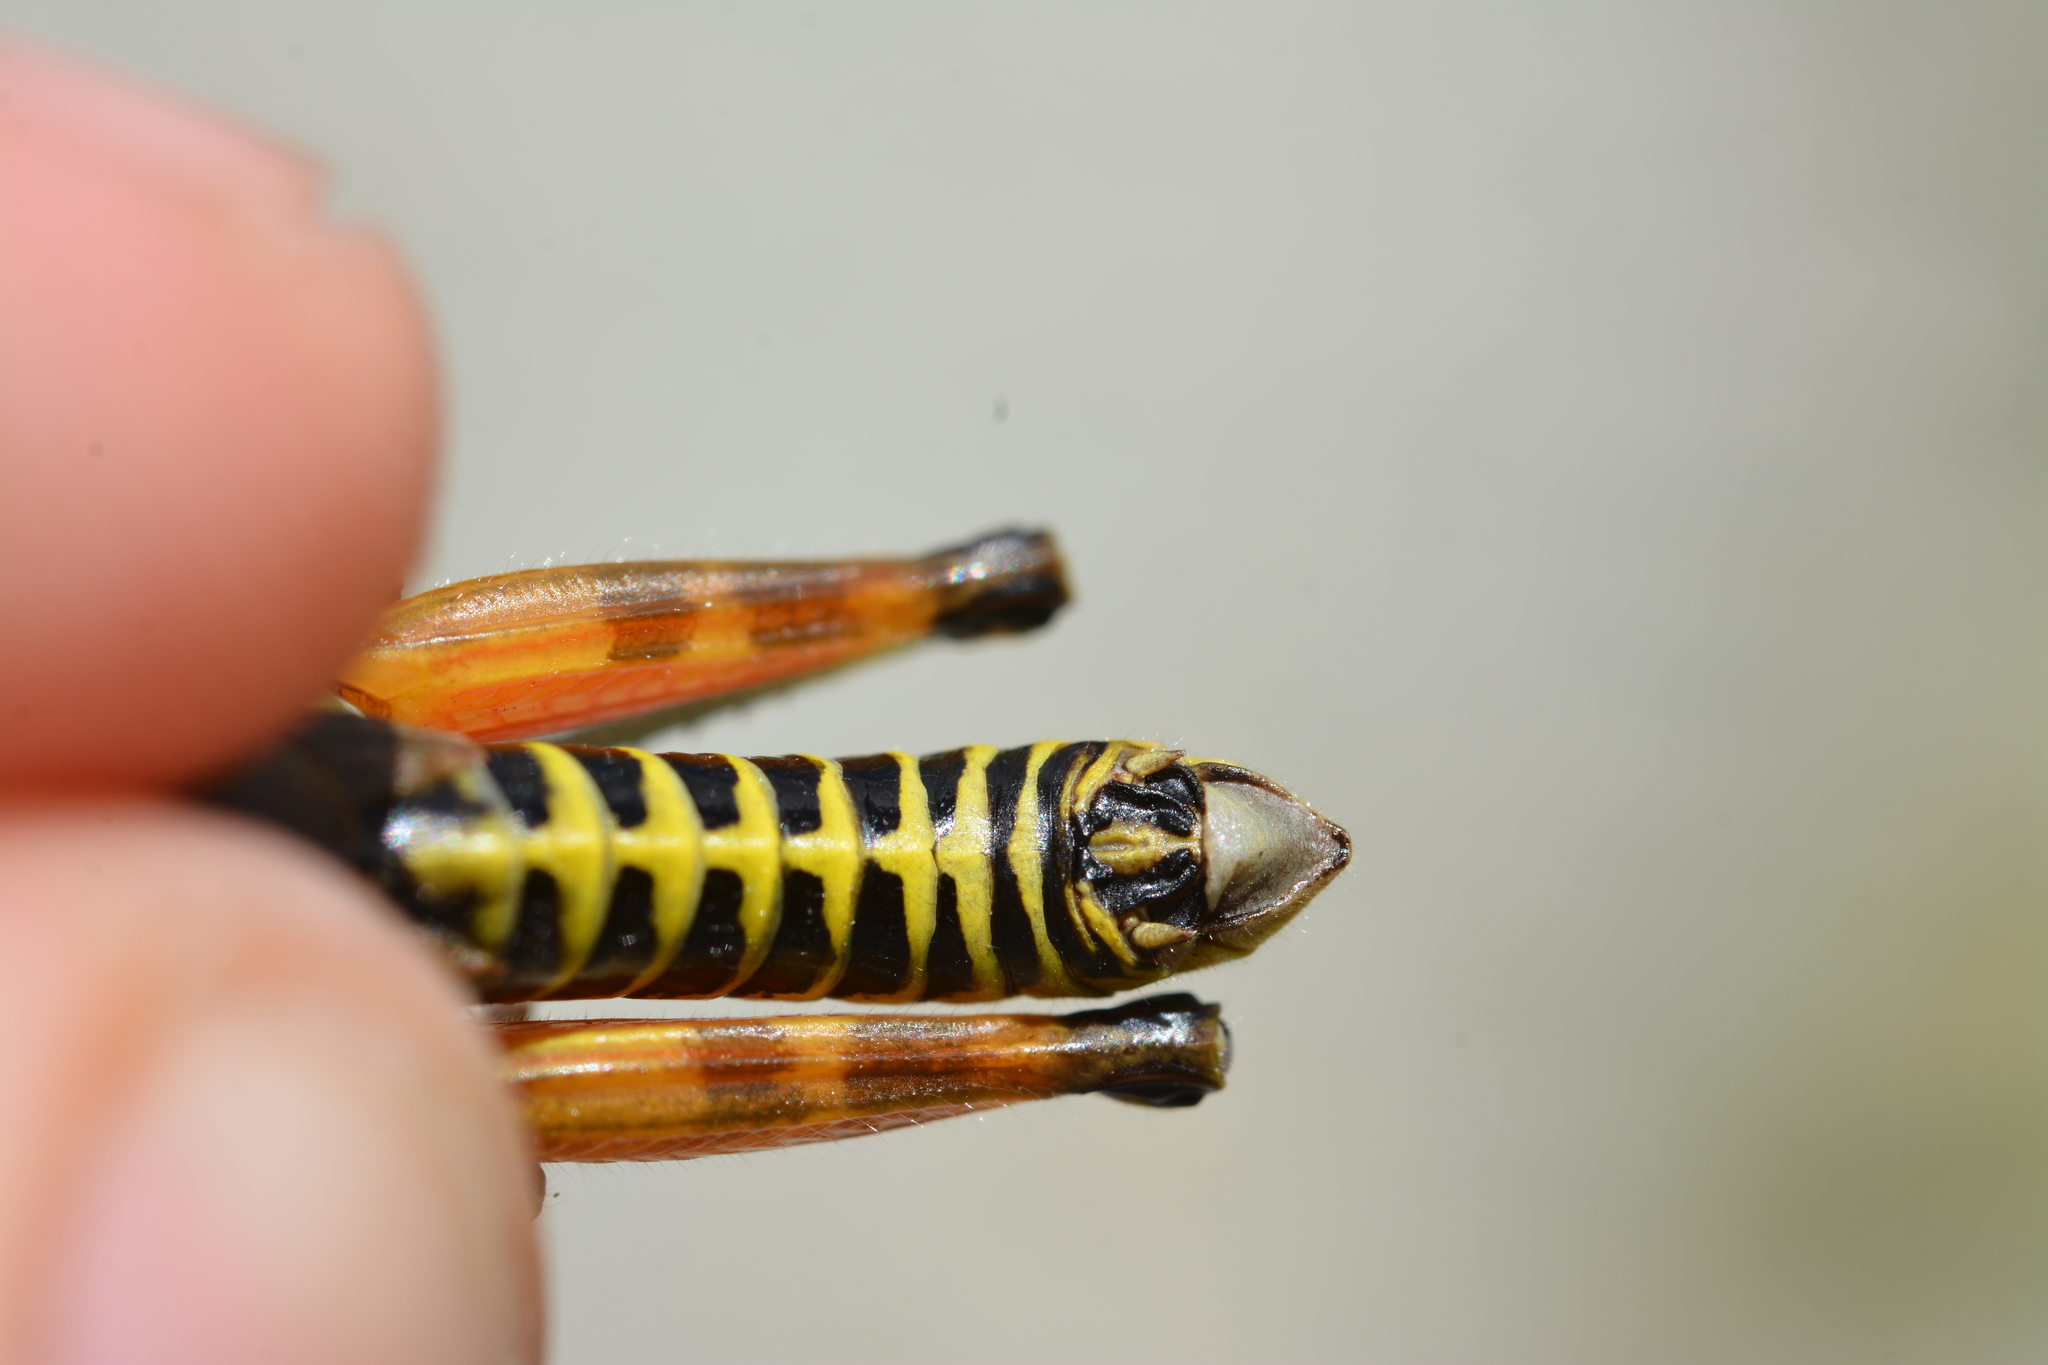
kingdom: Animalia
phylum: Arthropoda
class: Insecta
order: Orthoptera
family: Acrididae
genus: Podisma
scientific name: Podisma pedestris
